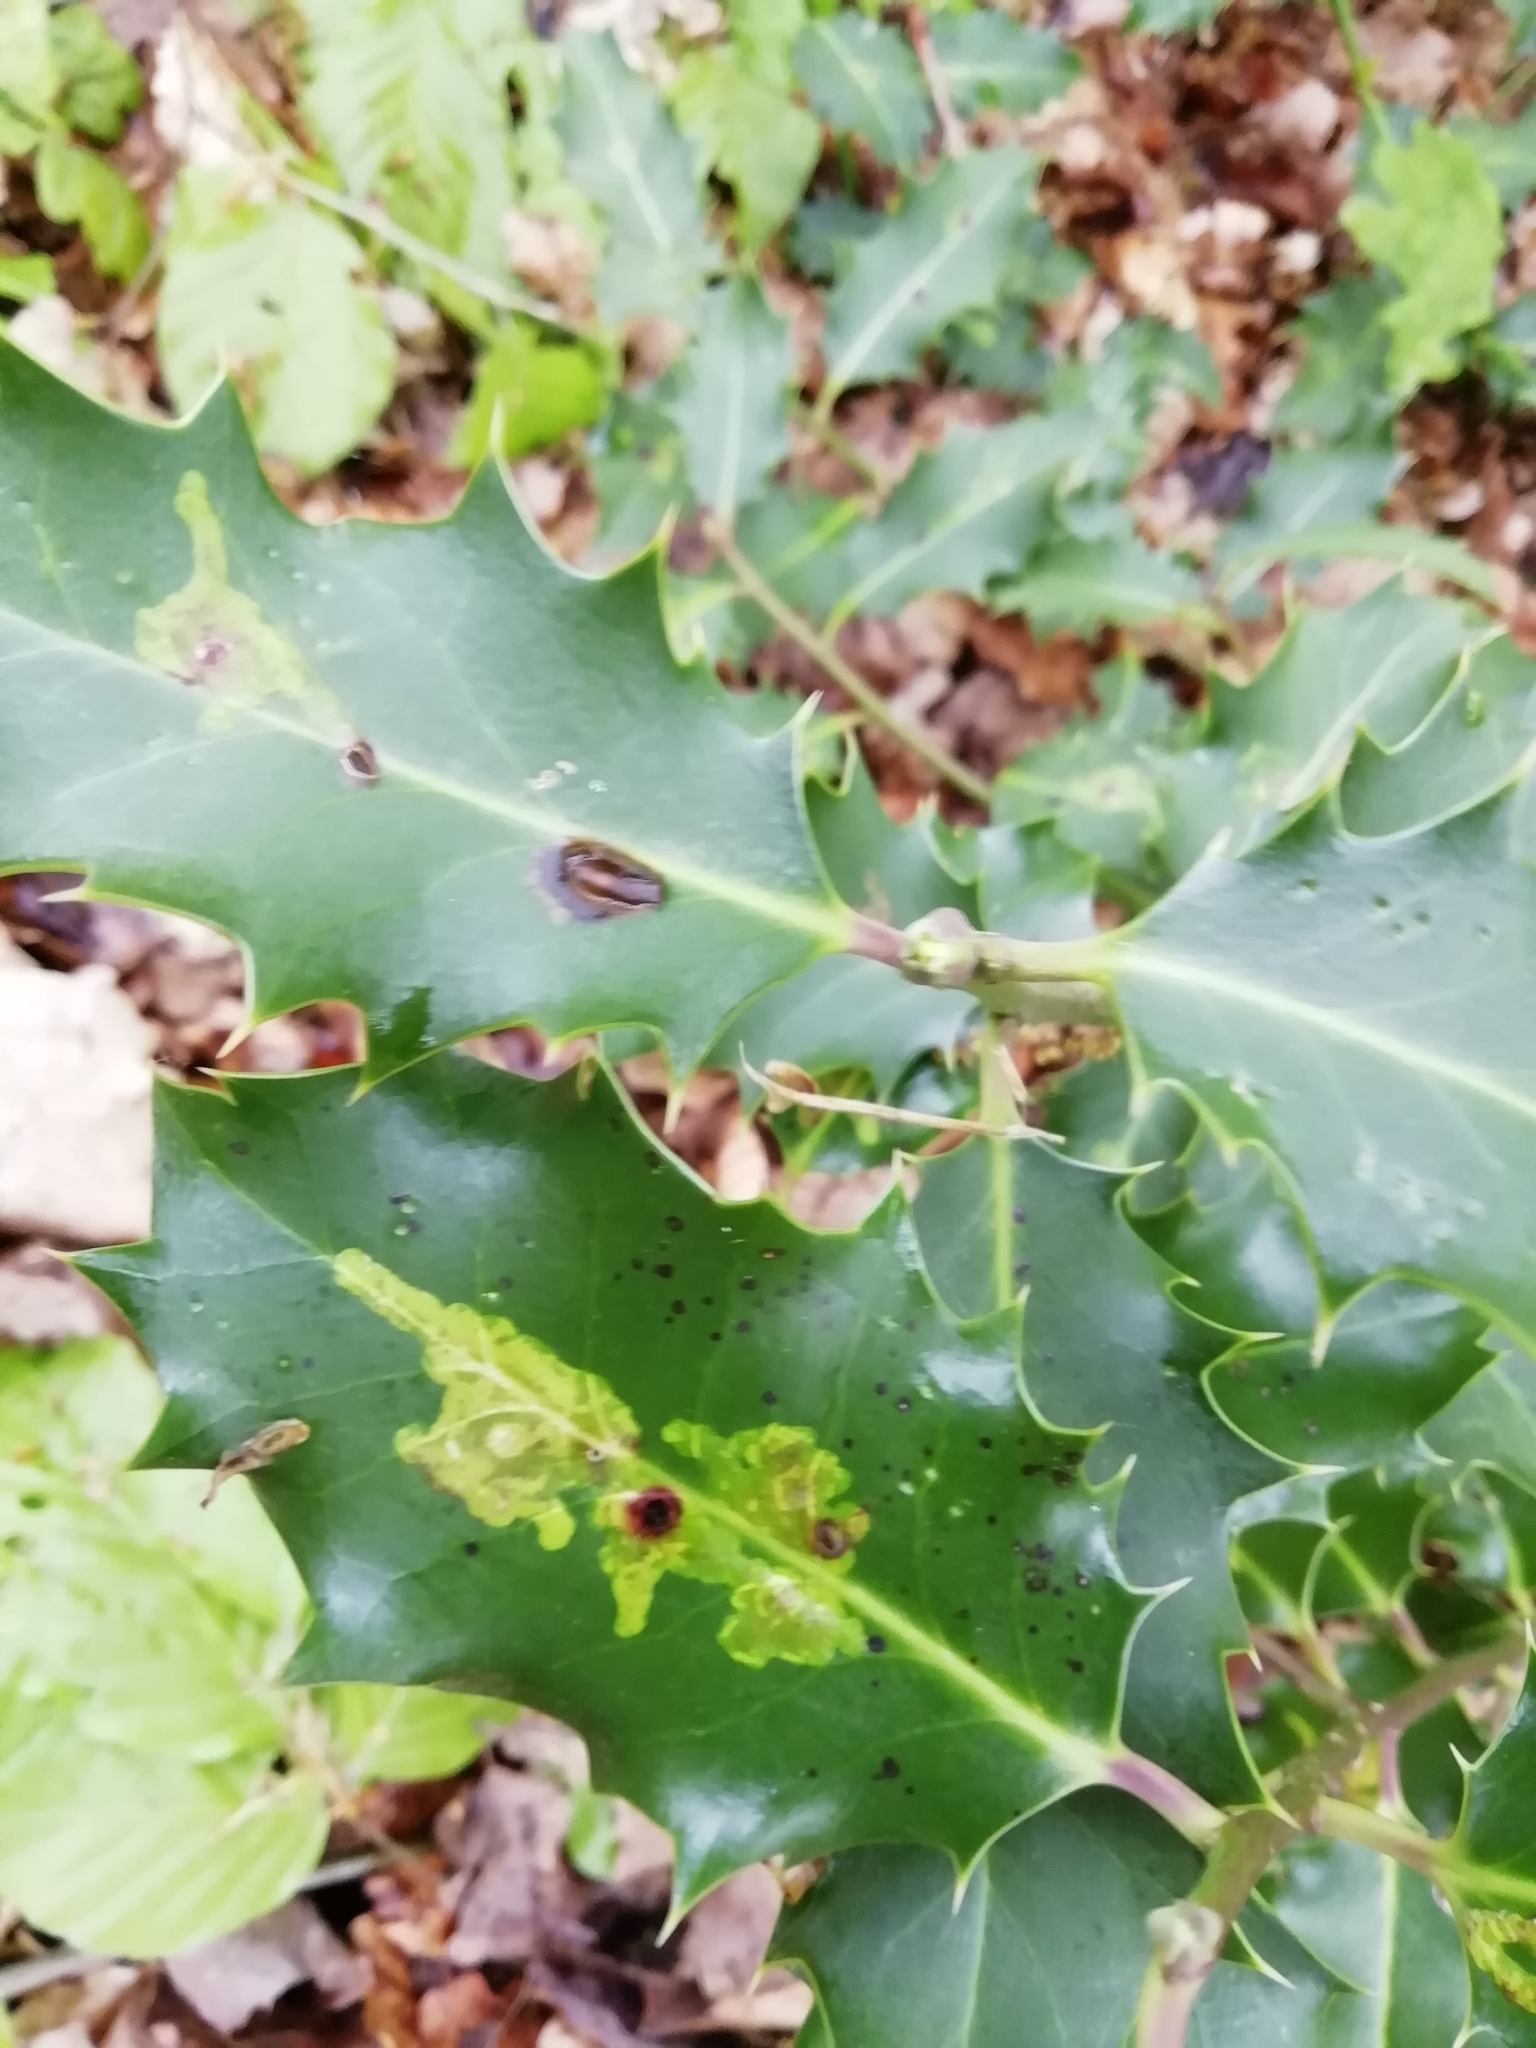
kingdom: Animalia
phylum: Arthropoda
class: Insecta
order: Diptera
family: Agromyzidae
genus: Phytomyza
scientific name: Phytomyza ilicis
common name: Holly leafminer
